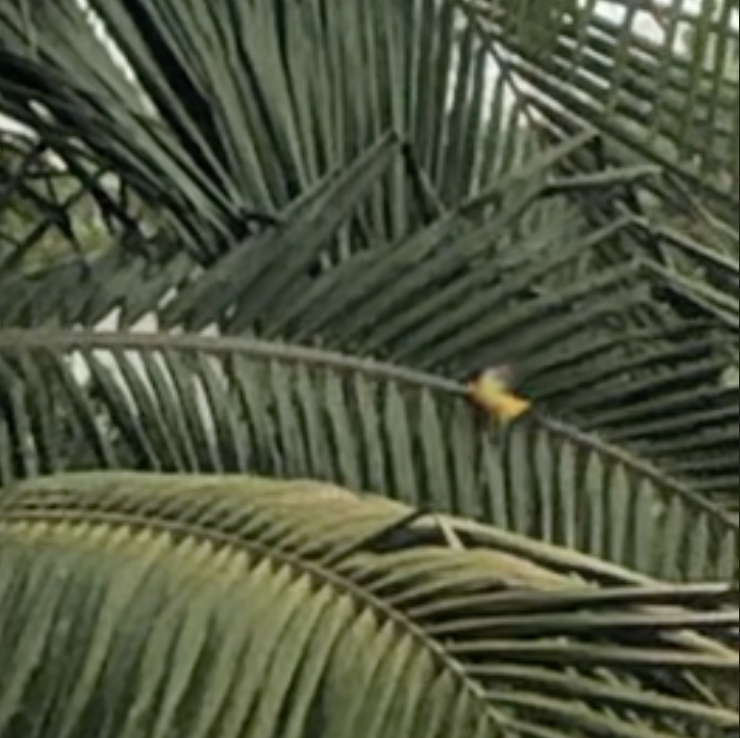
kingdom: Animalia
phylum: Chordata
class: Aves
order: Passeriformes
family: Icteridae
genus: Icterus
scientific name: Icterus cucullatus
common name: Hooded oriole
